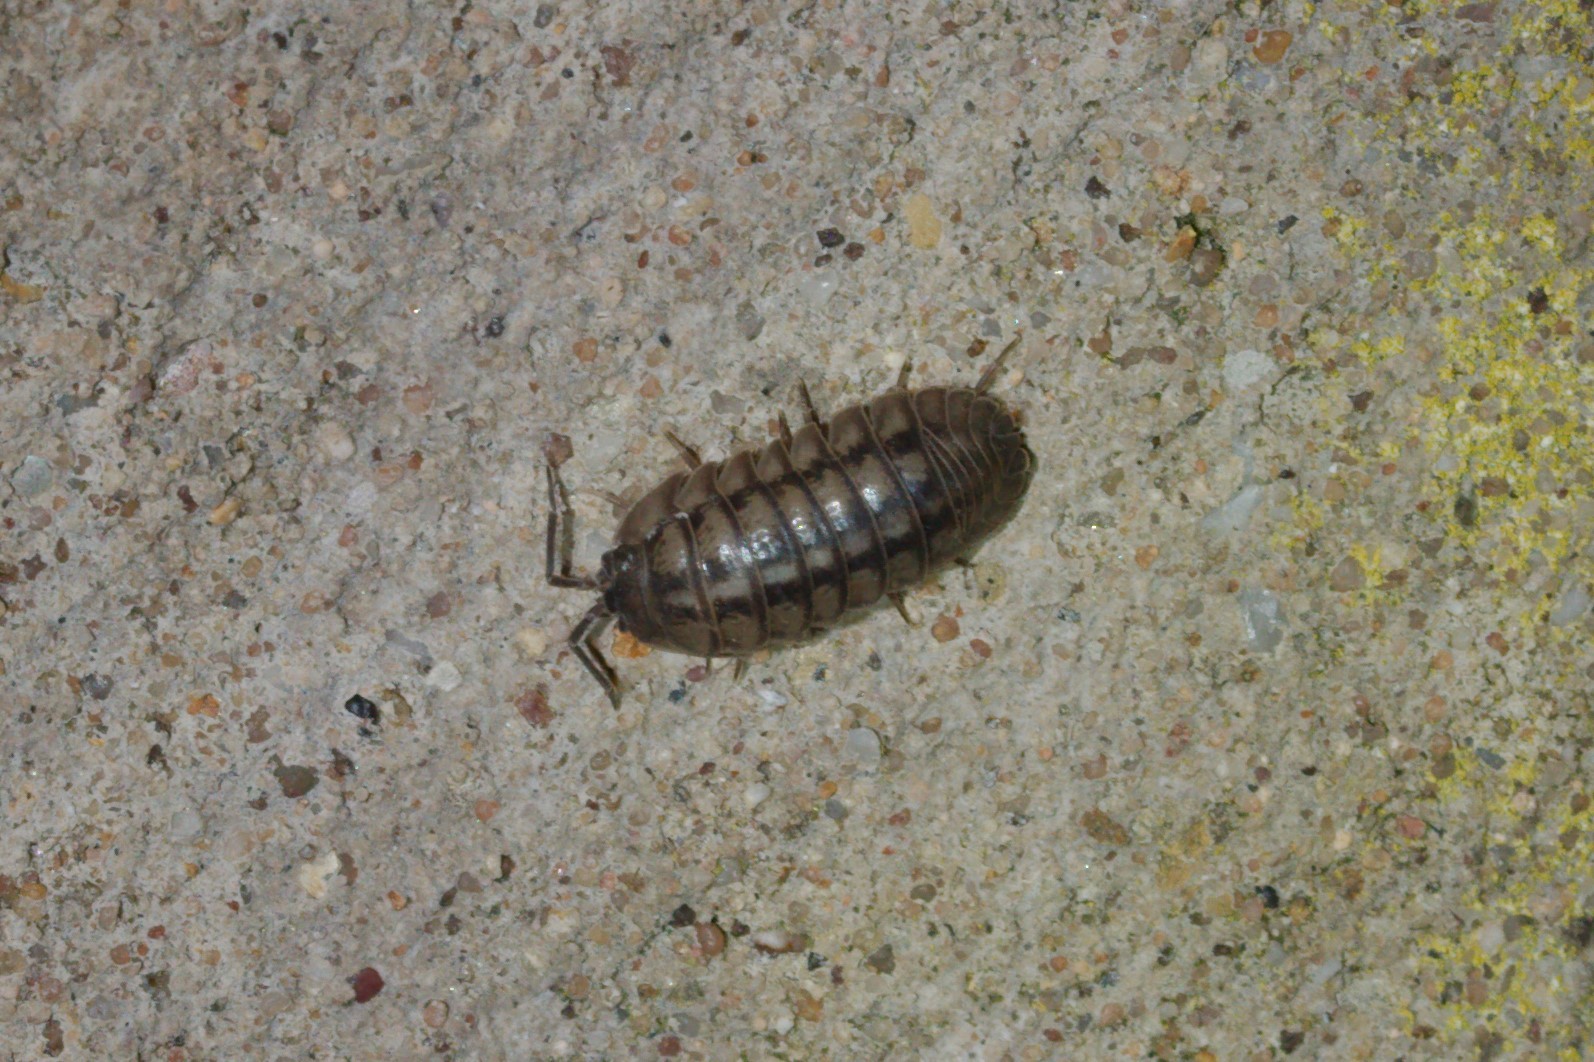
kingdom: Animalia
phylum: Arthropoda
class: Malacostraca
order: Isopoda
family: Armadillidiidae
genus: Armadillidium
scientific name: Armadillidium nasatum
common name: Isopod
